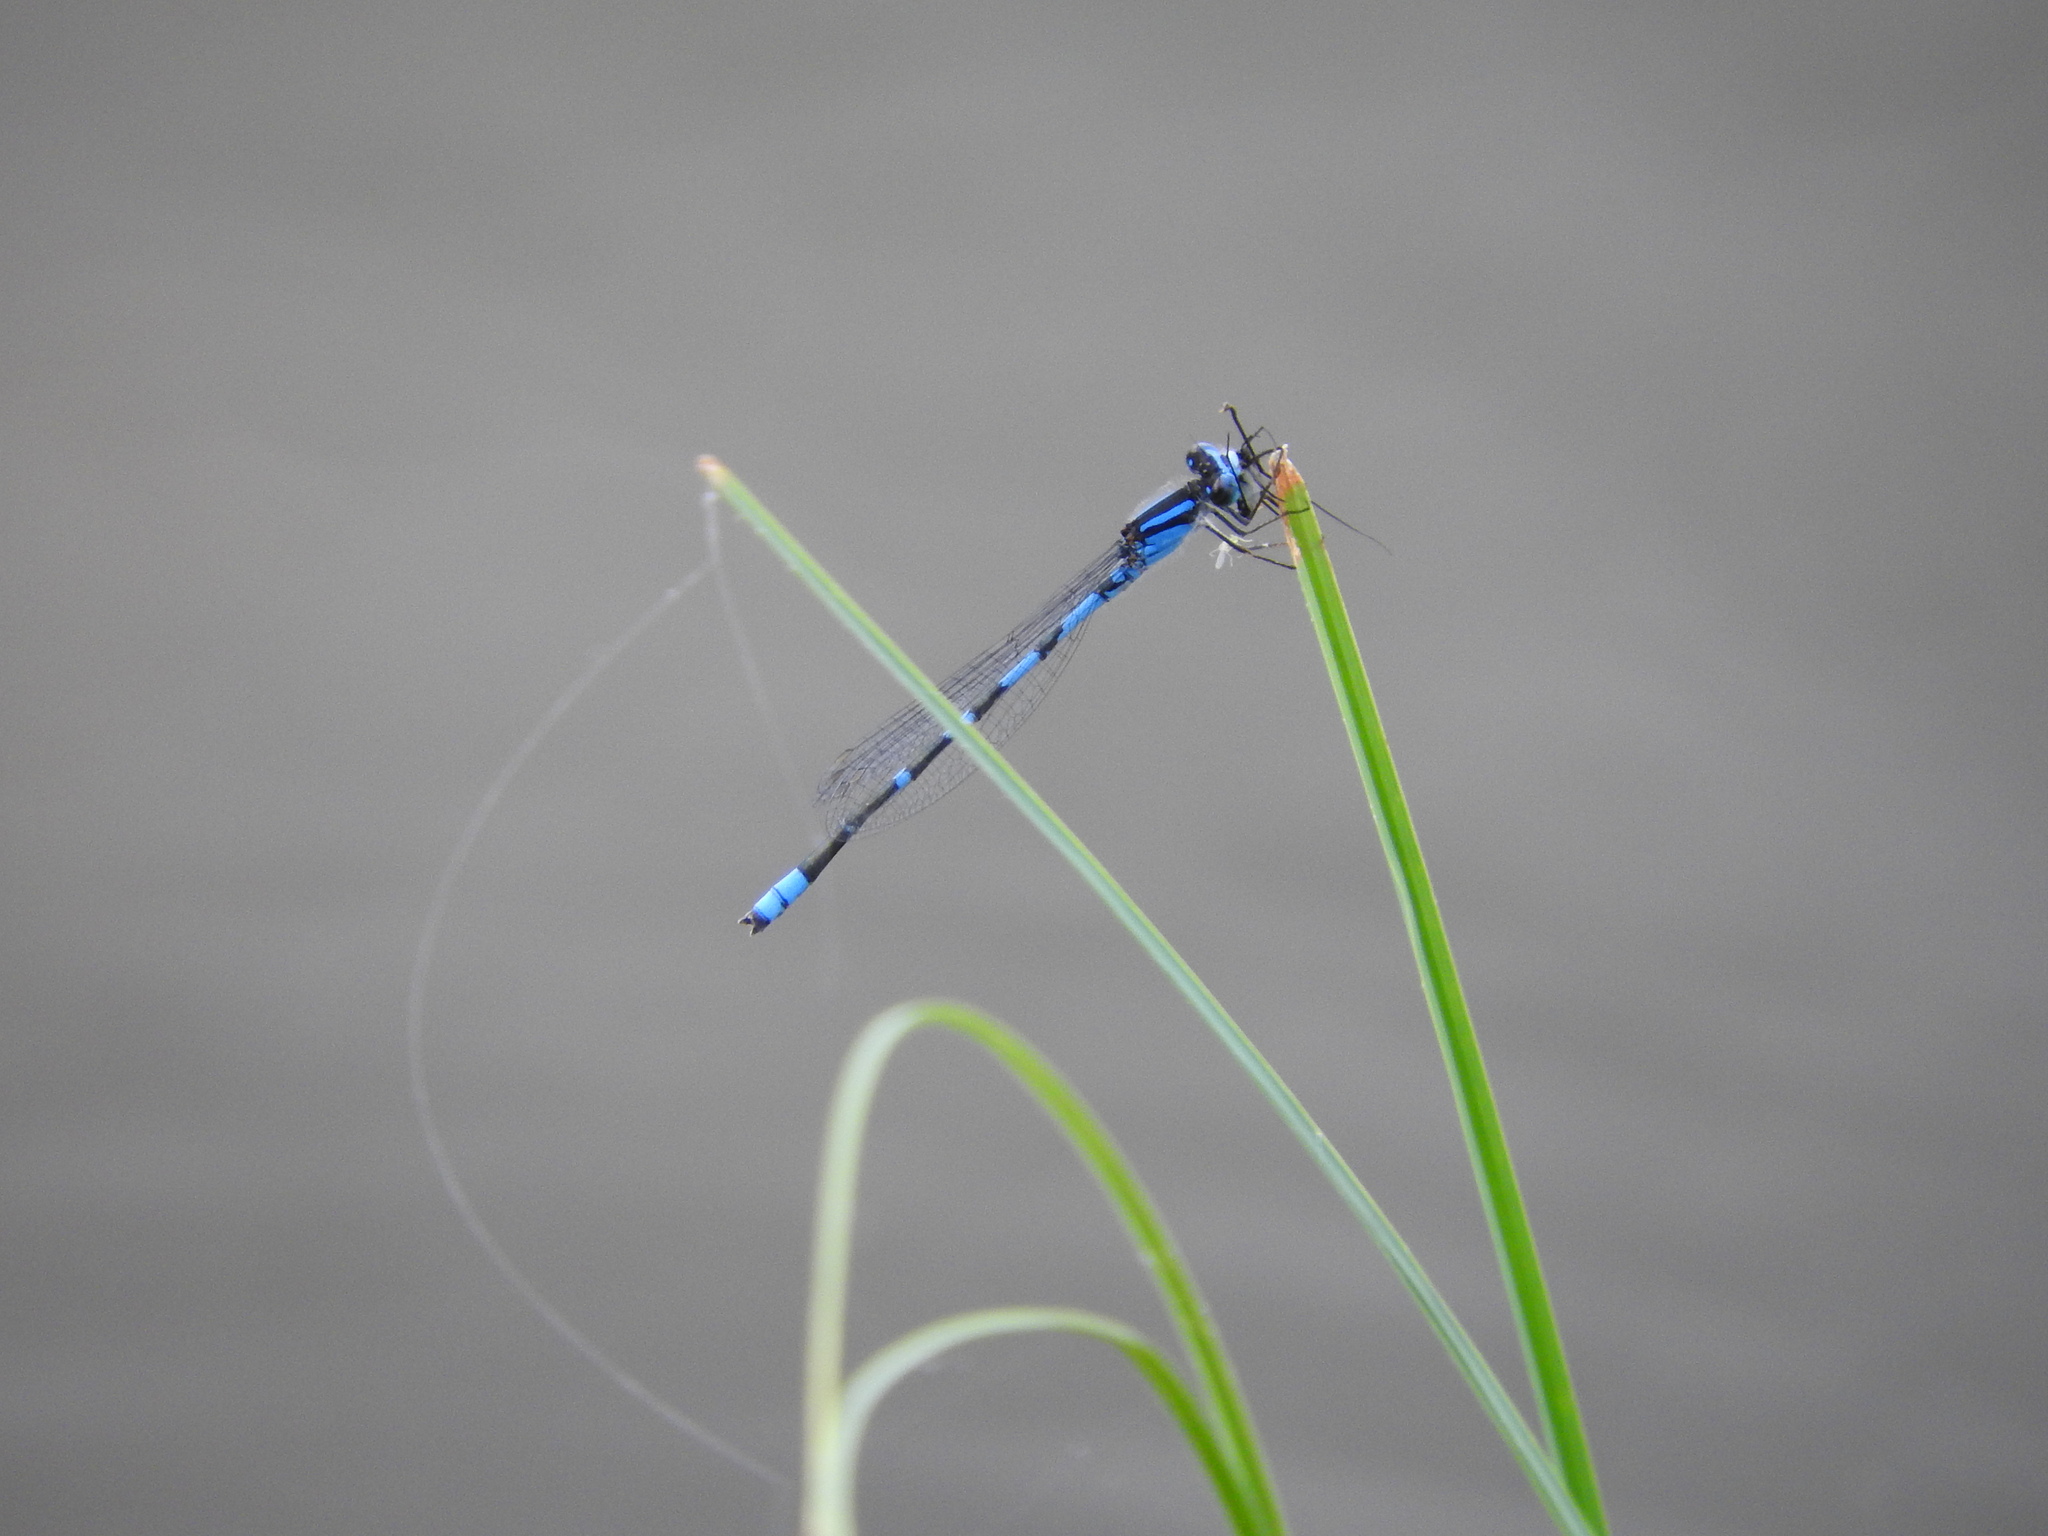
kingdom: Animalia
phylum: Arthropoda
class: Insecta
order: Odonata
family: Coenagrionidae
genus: Enallagma
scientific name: Enallagma civile
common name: Damselfly
